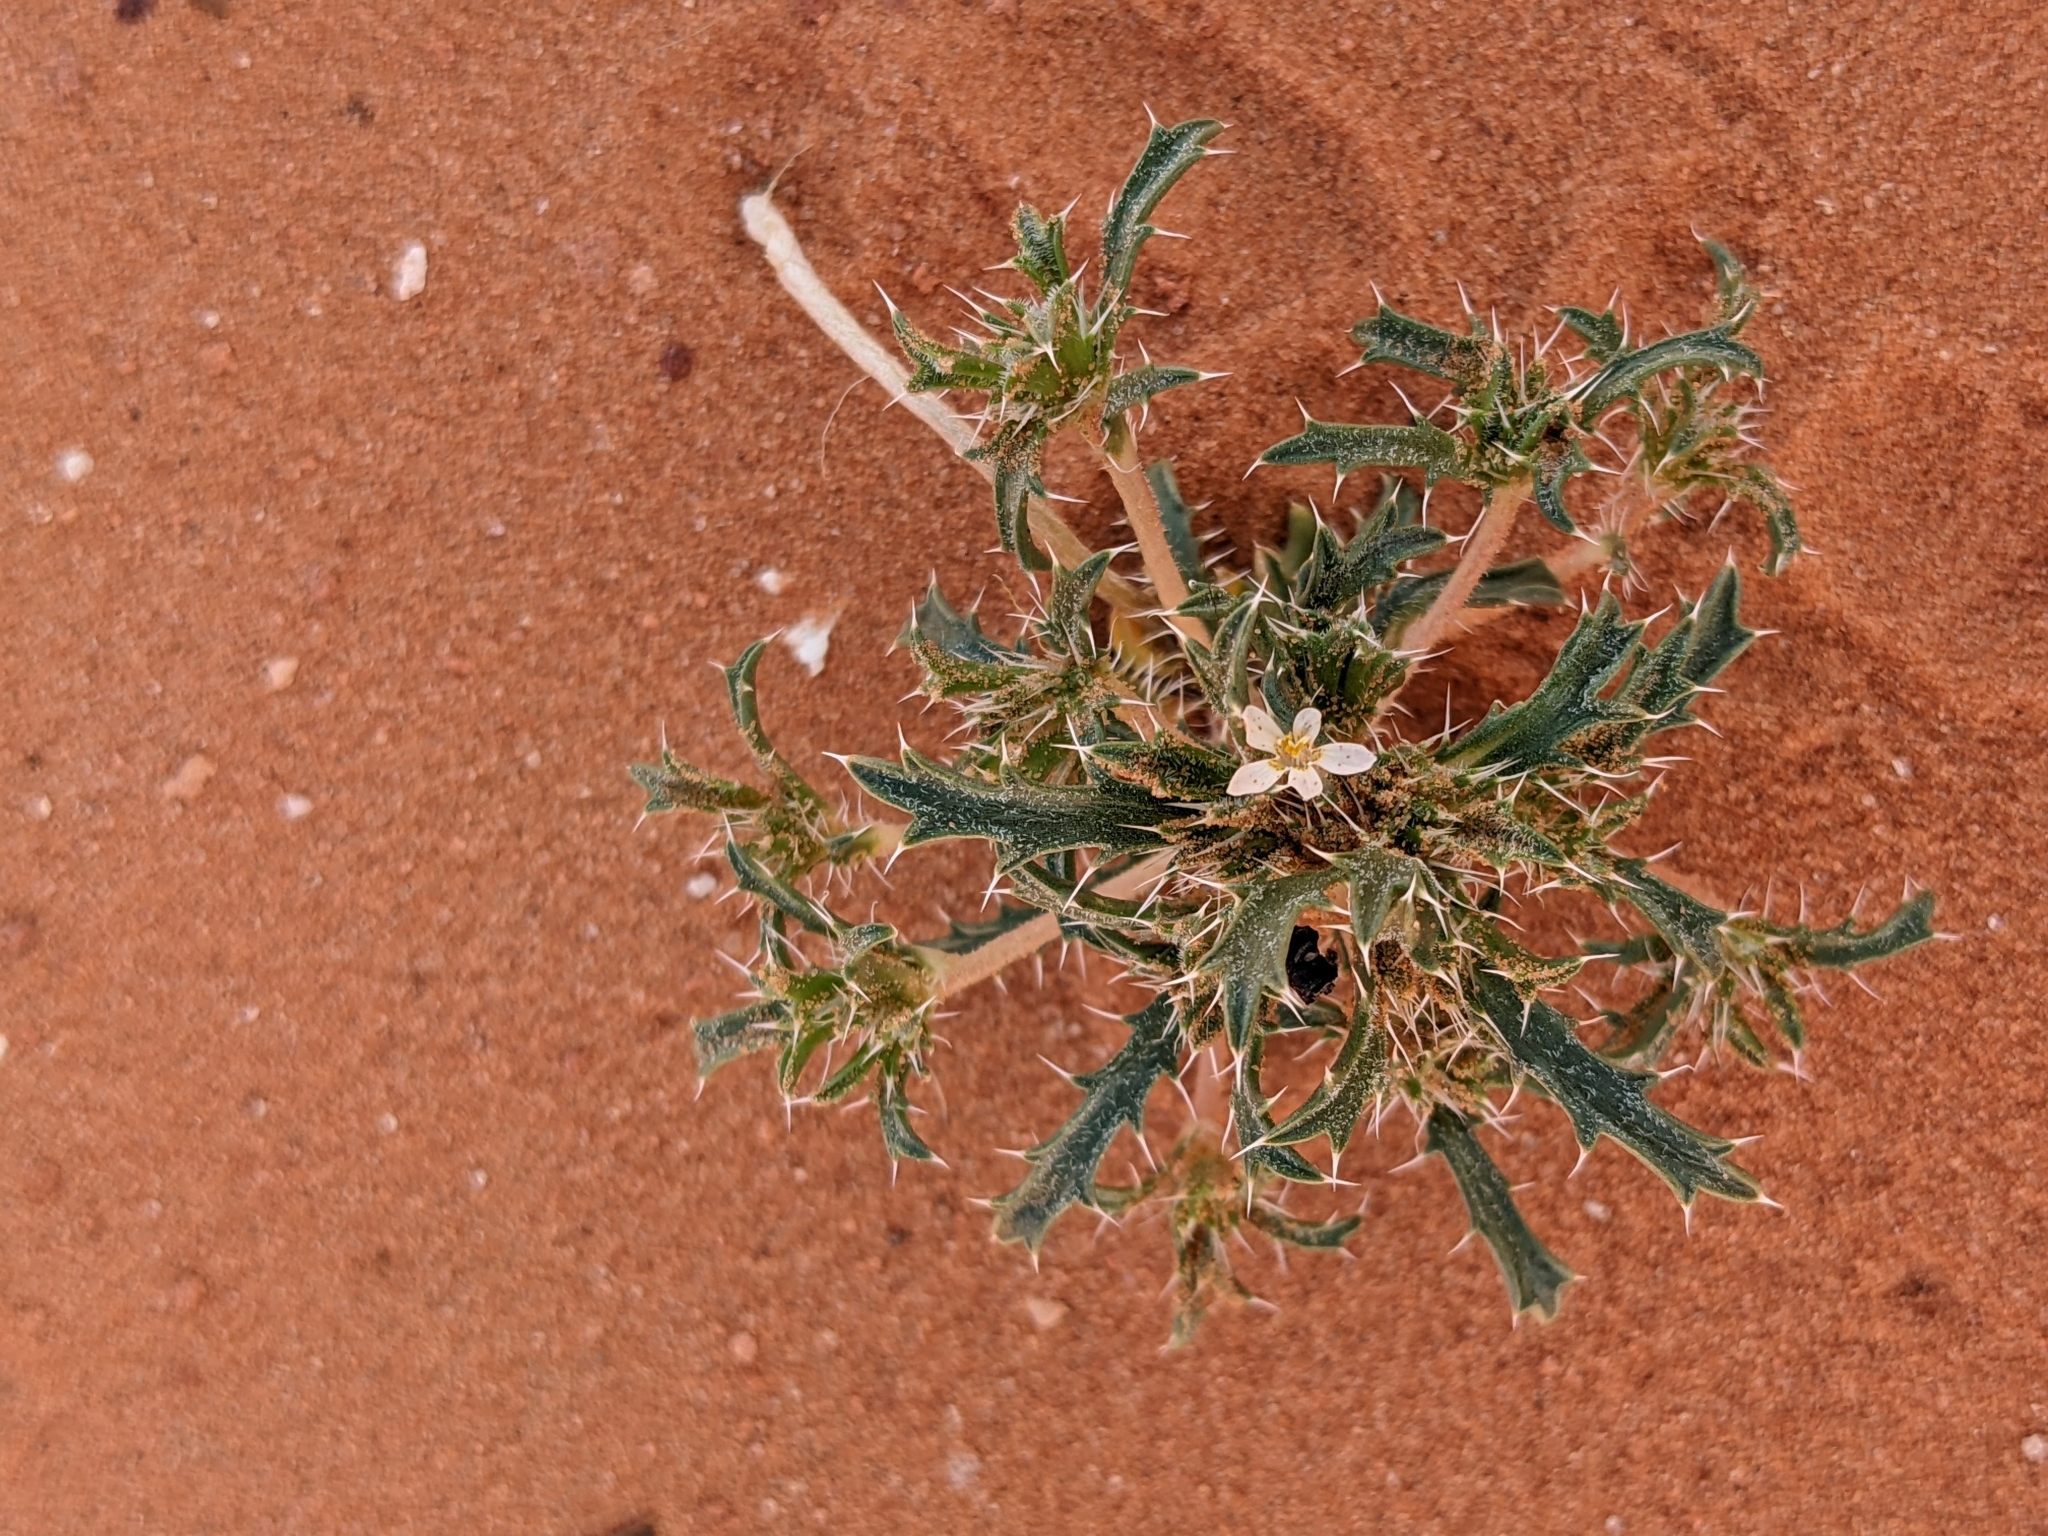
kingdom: Plantae
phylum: Tracheophyta
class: Magnoliopsida
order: Ericales
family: Polemoniaceae
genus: Loeseliastrum
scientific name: Loeseliastrum schottii
